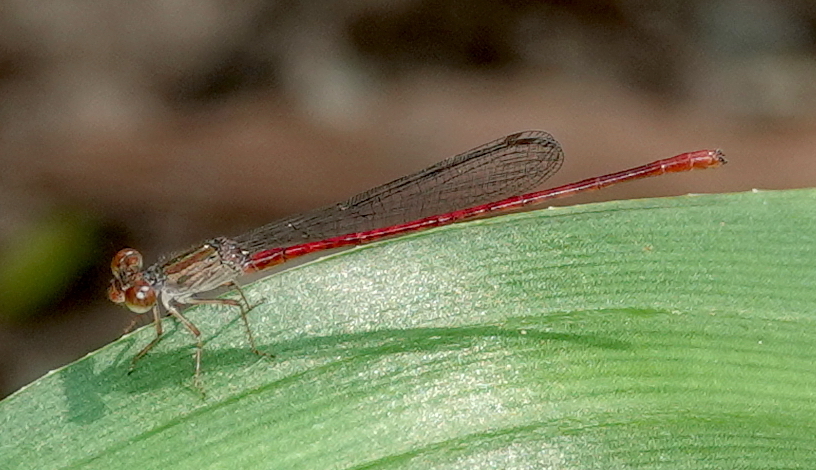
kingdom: Animalia
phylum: Arthropoda
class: Insecta
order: Odonata
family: Coenagrionidae
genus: Telebasis
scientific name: Telebasis digiticollis
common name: Marsh firetail
